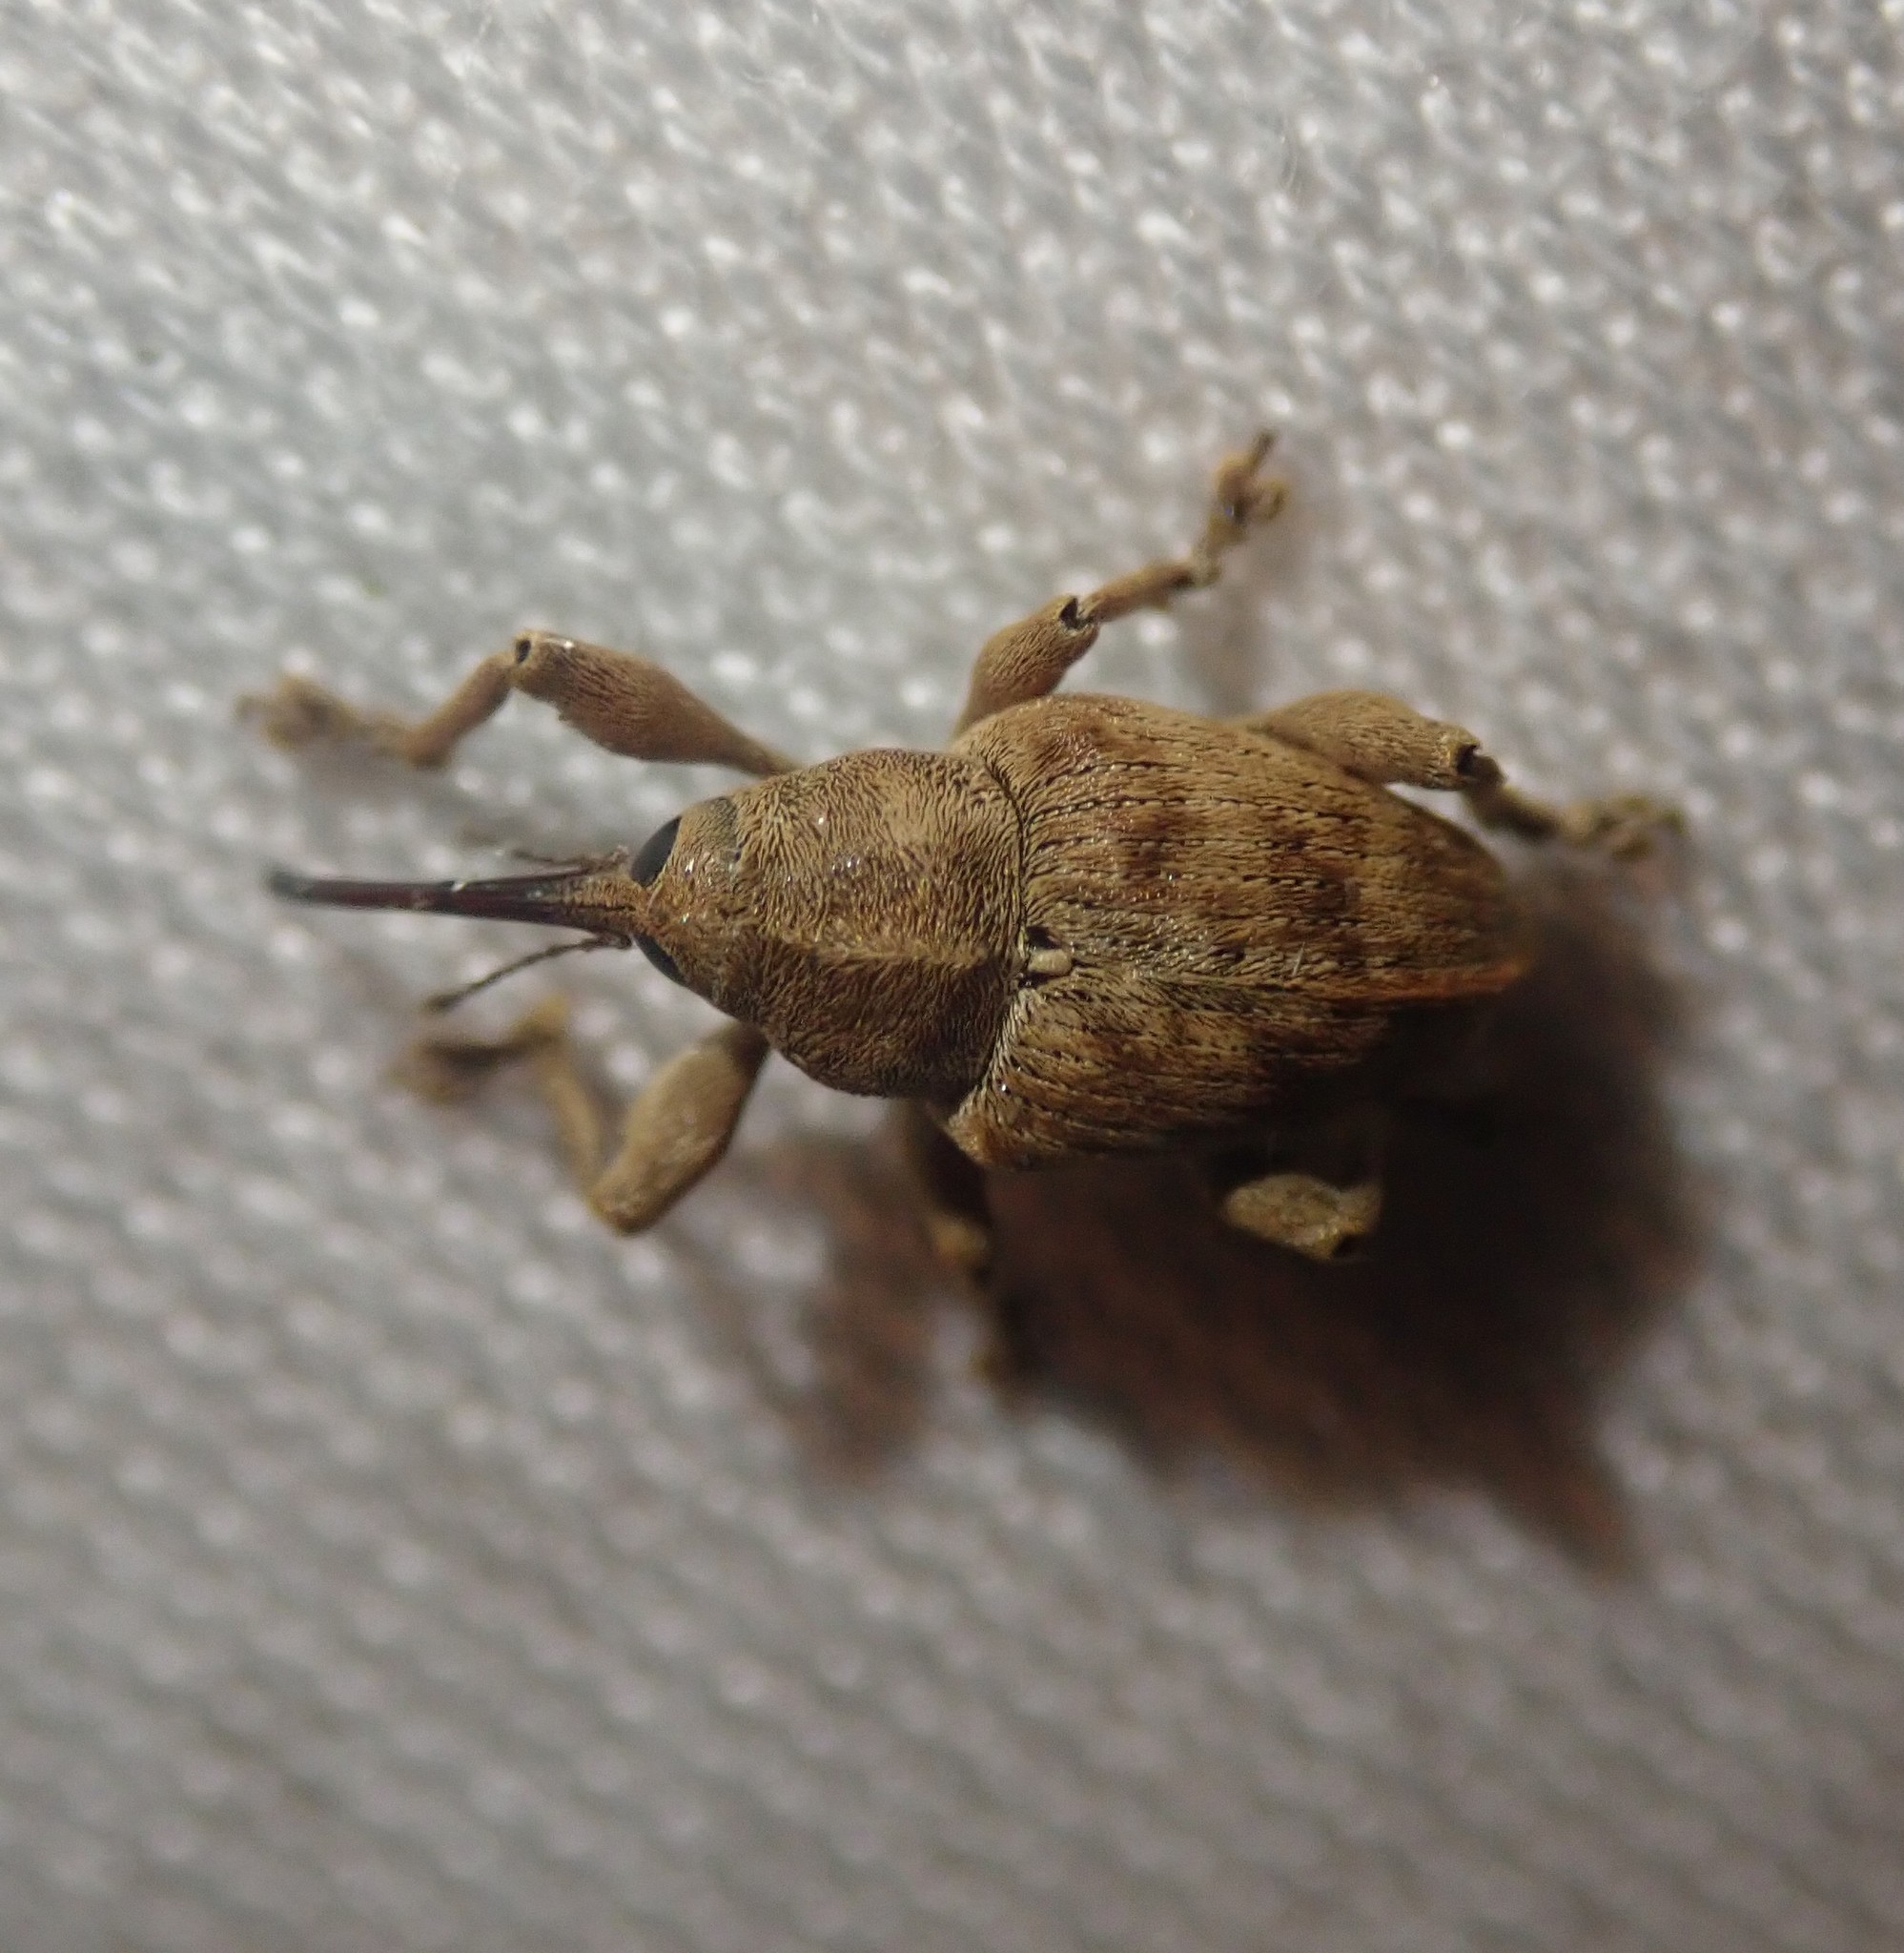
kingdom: Animalia
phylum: Arthropoda
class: Insecta
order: Coleoptera
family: Curculionidae
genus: Curculio
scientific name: Curculio venosus
